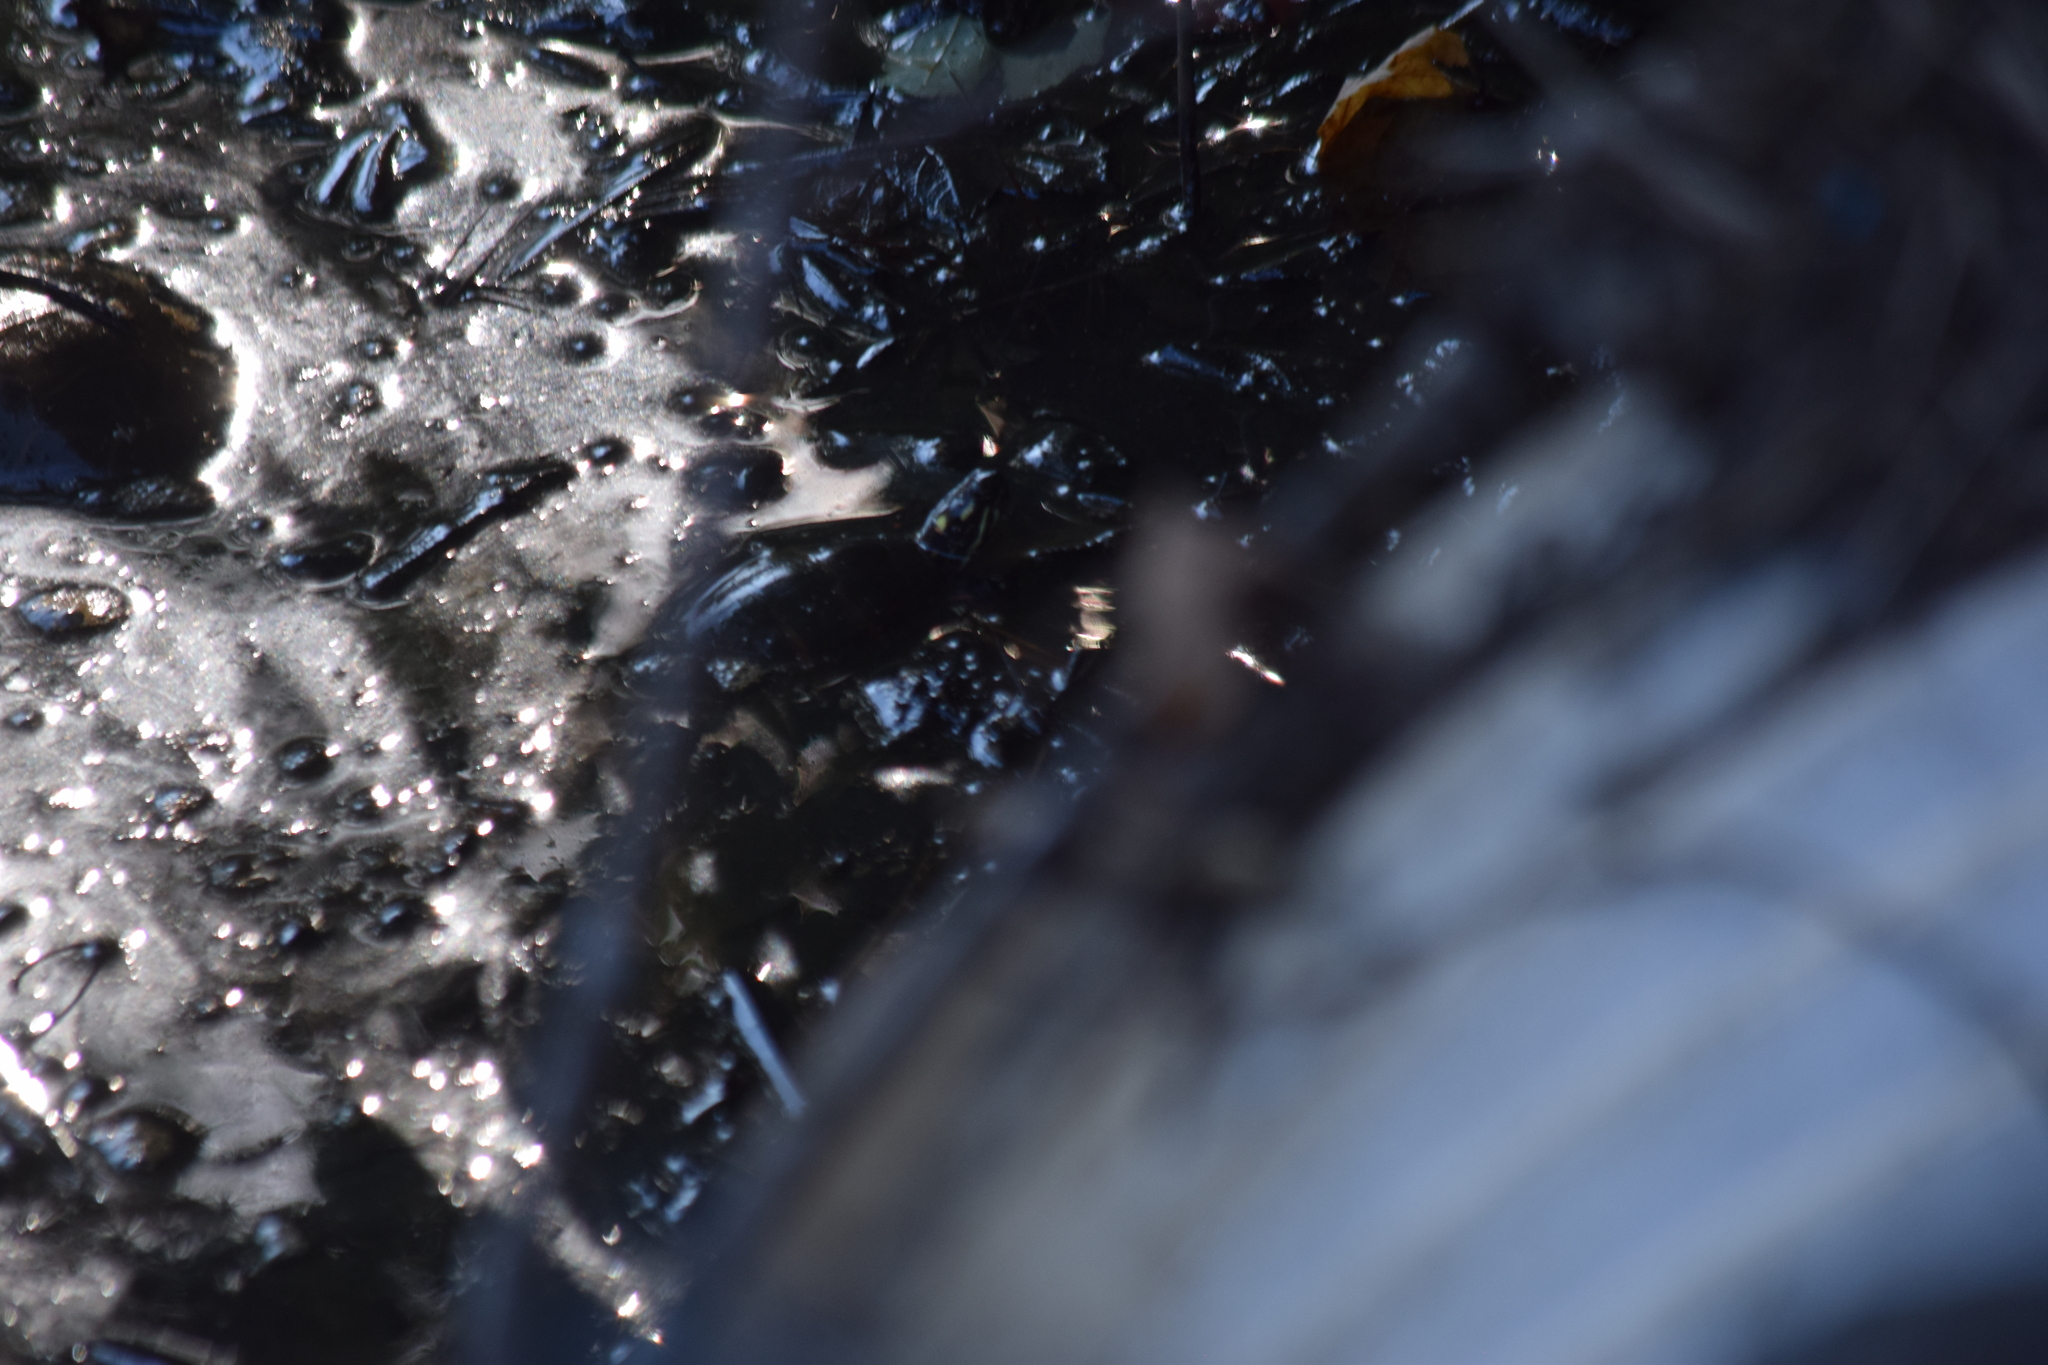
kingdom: Animalia
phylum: Chordata
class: Testudines
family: Emydidae
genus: Chrysemys
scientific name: Chrysemys picta
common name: Painted turtle
